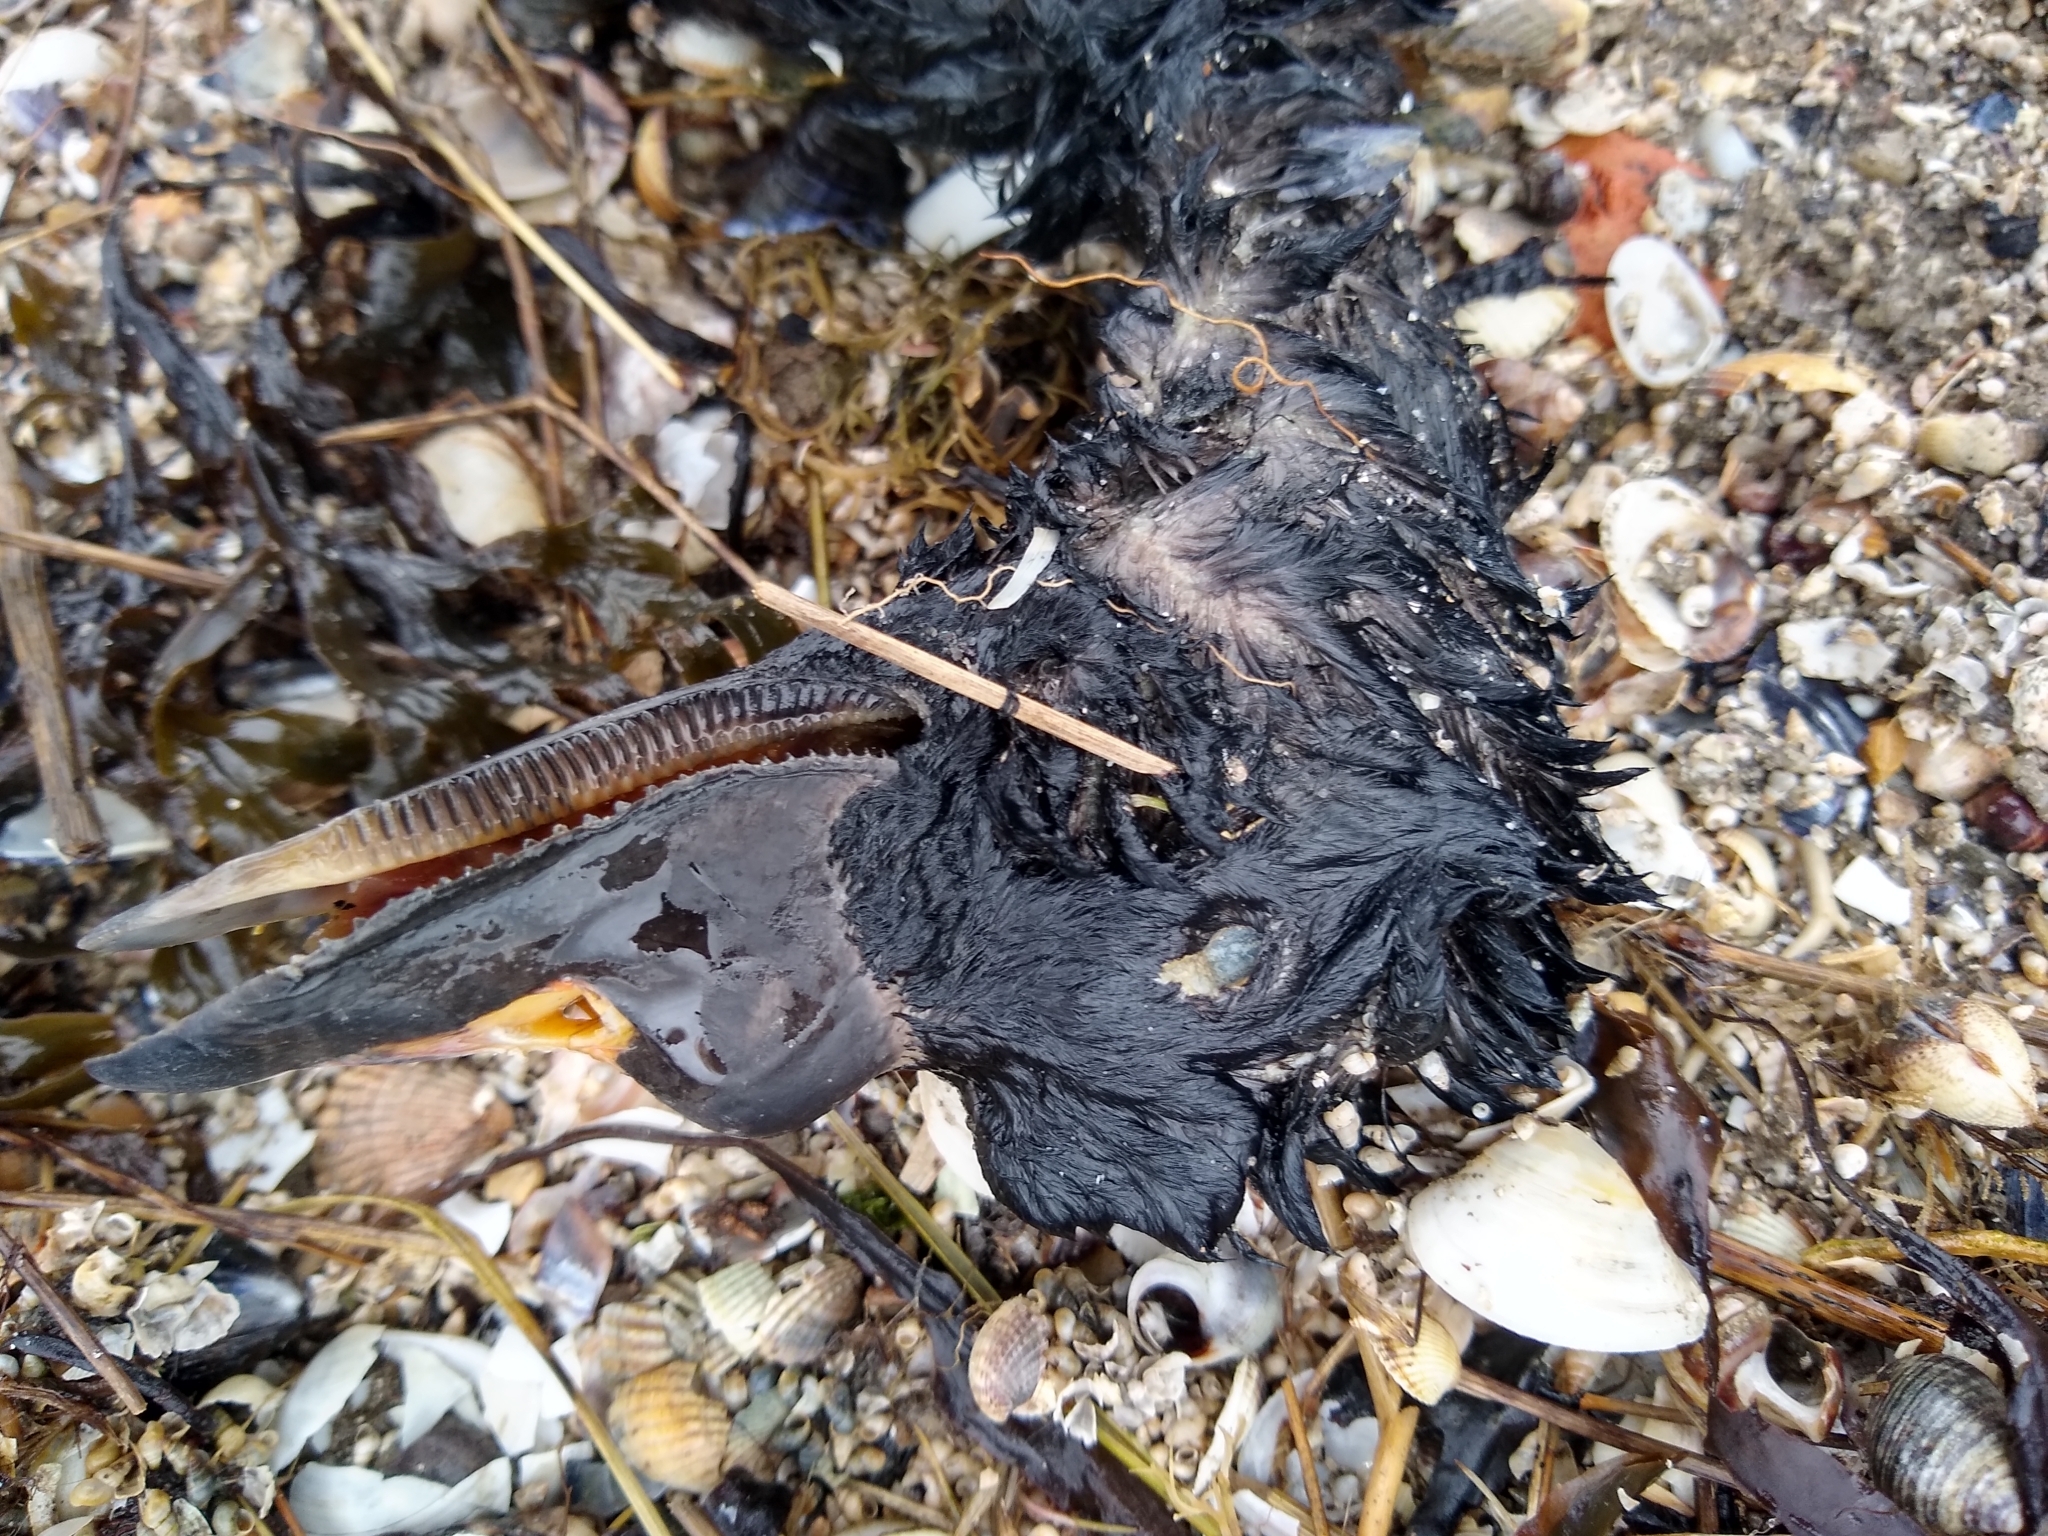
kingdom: Animalia
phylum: Chordata
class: Aves
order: Anseriformes
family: Anatidae
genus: Melanitta
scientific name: Melanitta nigra
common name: Common scoter
